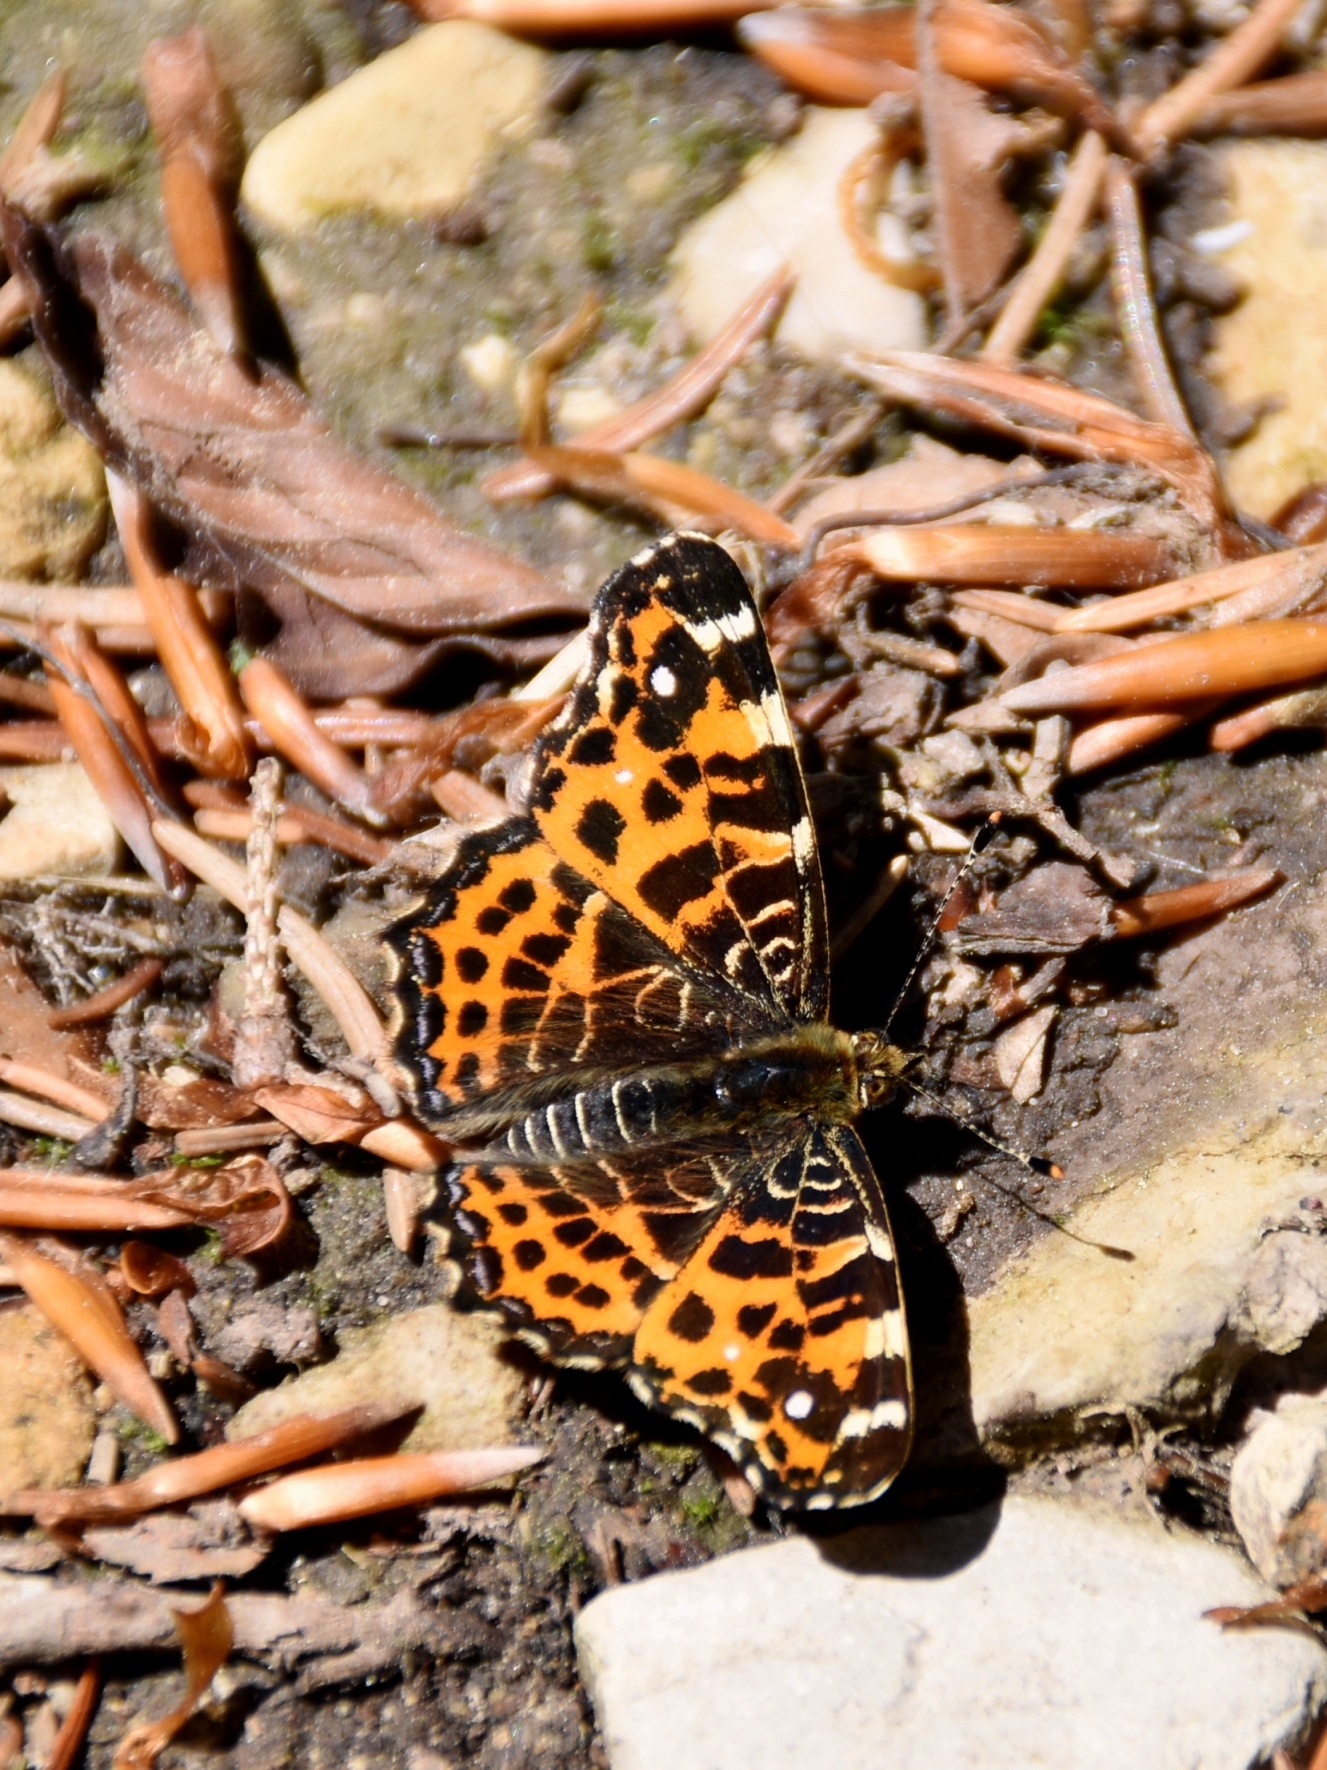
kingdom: Animalia
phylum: Arthropoda
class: Insecta
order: Lepidoptera
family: Nymphalidae
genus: Araschnia
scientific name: Araschnia levana
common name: Map butterfly
